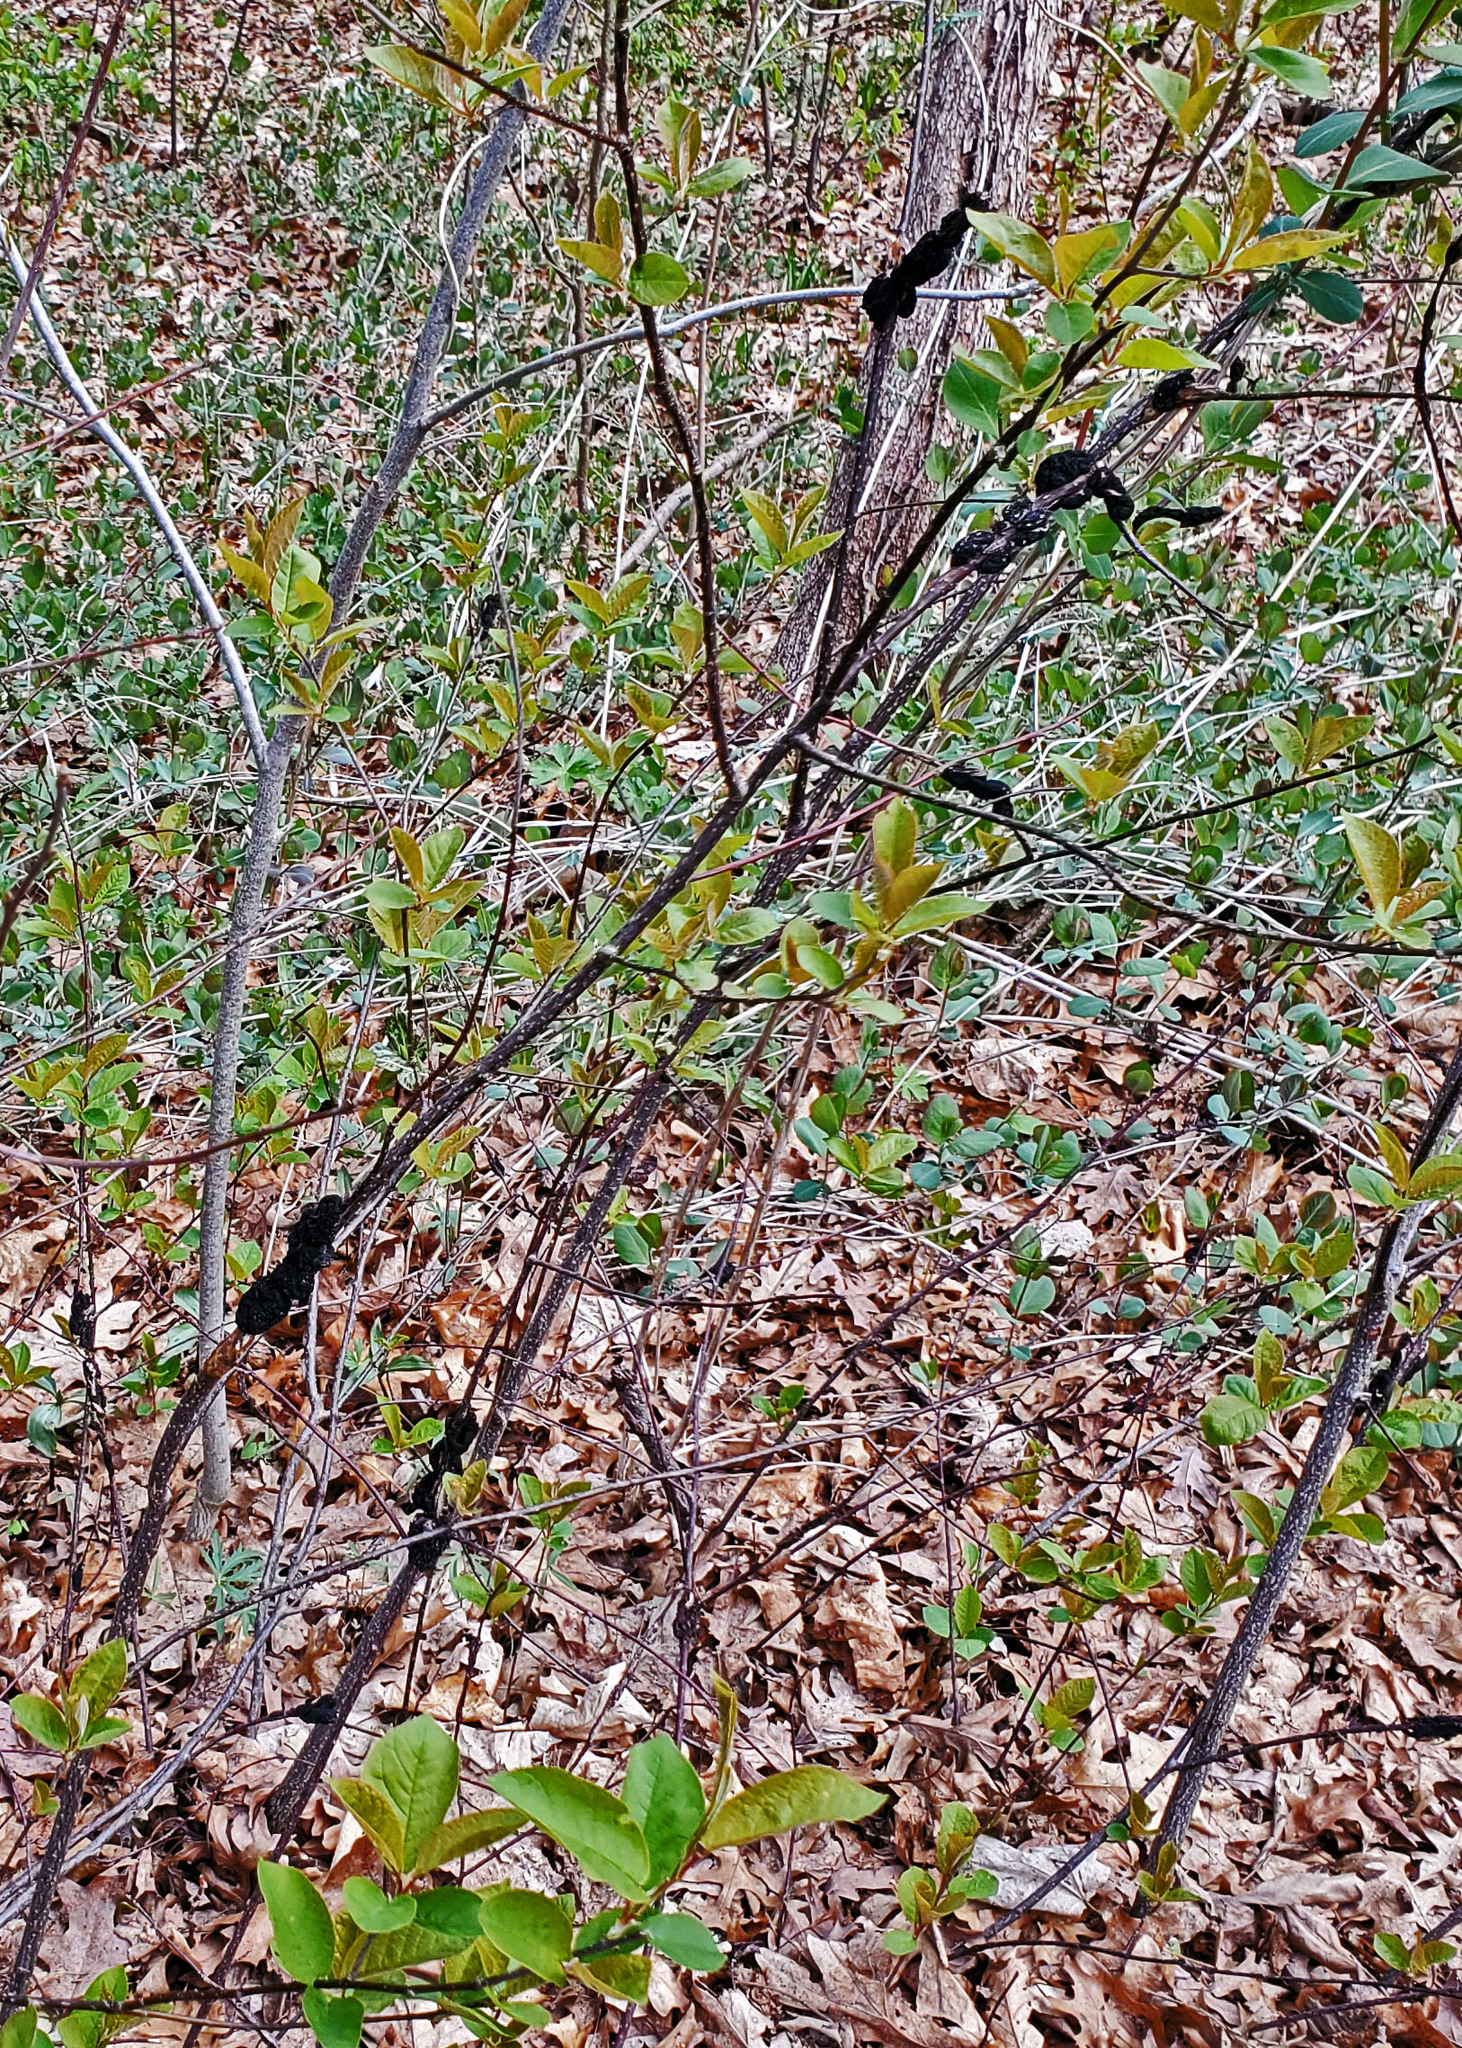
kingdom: Fungi
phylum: Ascomycota
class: Dothideomycetes
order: Venturiales
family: Venturiaceae
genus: Apiosporina
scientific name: Apiosporina morbosa
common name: Black knot
